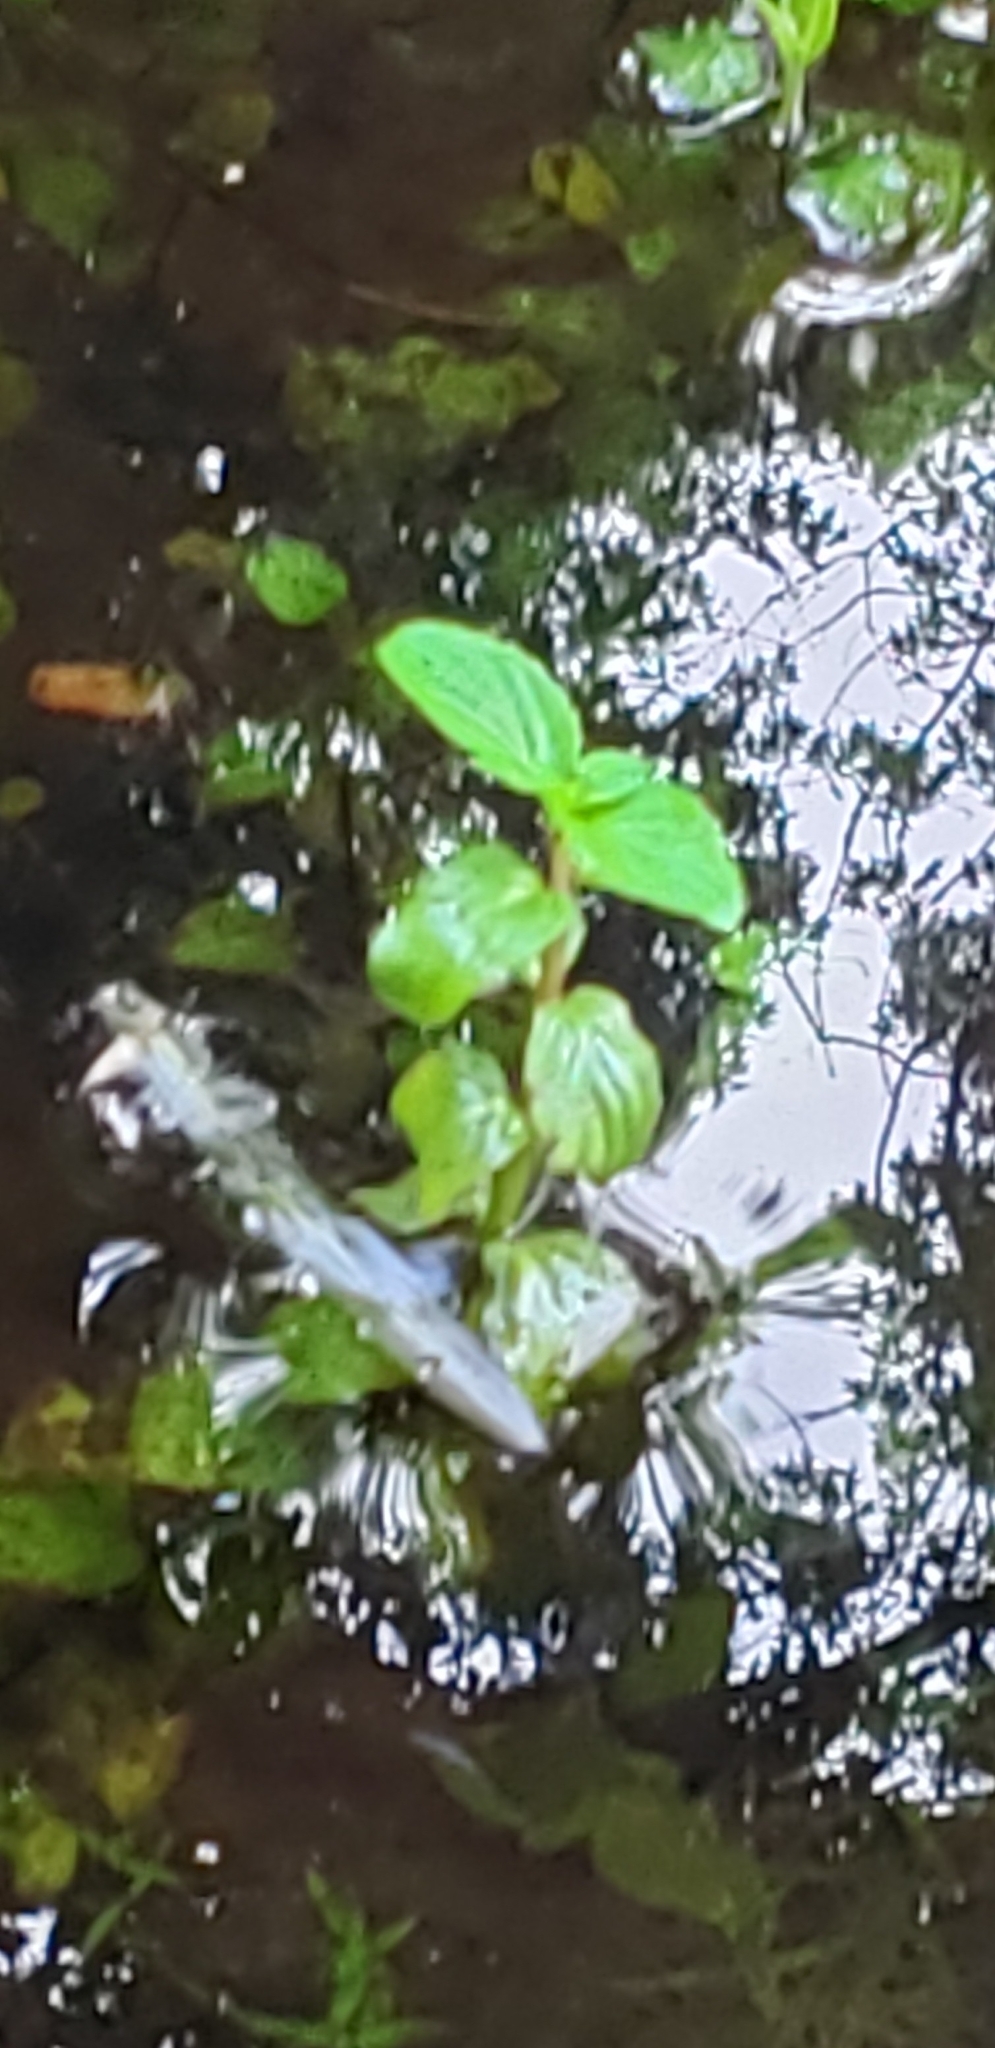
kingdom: Plantae
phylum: Tracheophyta
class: Magnoliopsida
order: Myrtales
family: Onagraceae
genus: Ludwigia
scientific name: Ludwigia palustris
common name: Hampshire-purslane
